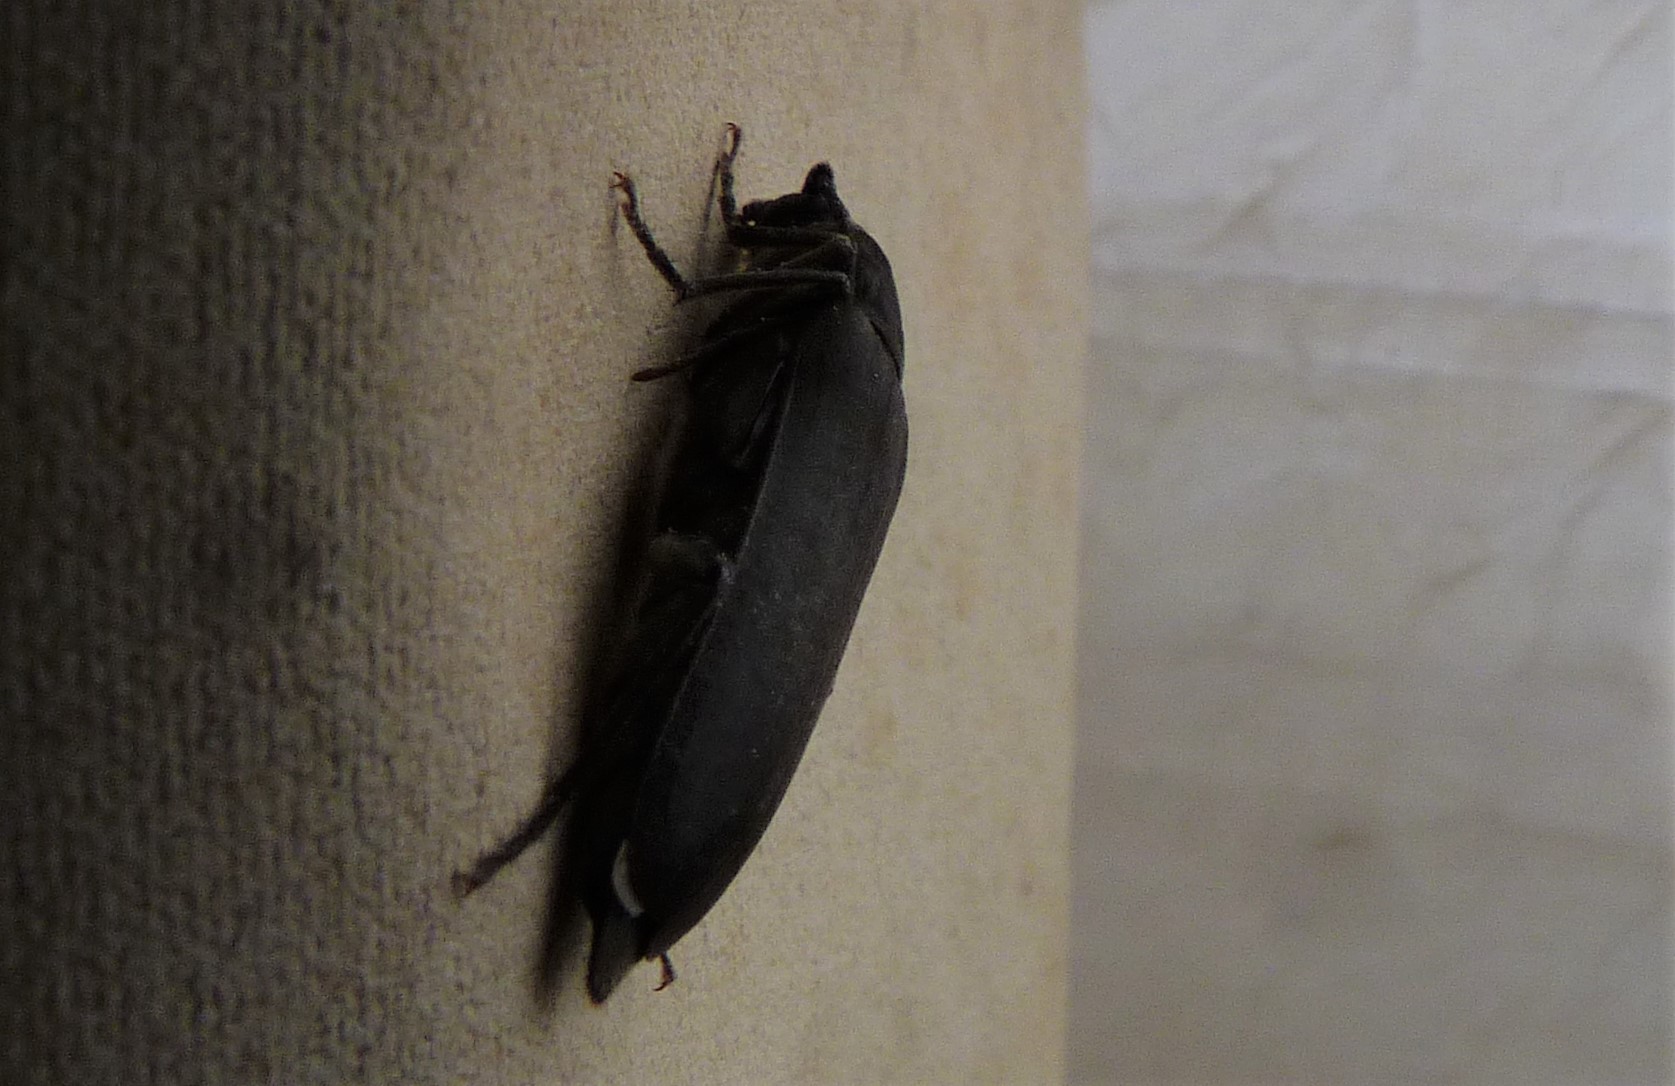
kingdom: Animalia
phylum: Arthropoda
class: Insecta
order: Coleoptera
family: Cerambycidae
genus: Arhopalus
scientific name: Arhopalus ferus
